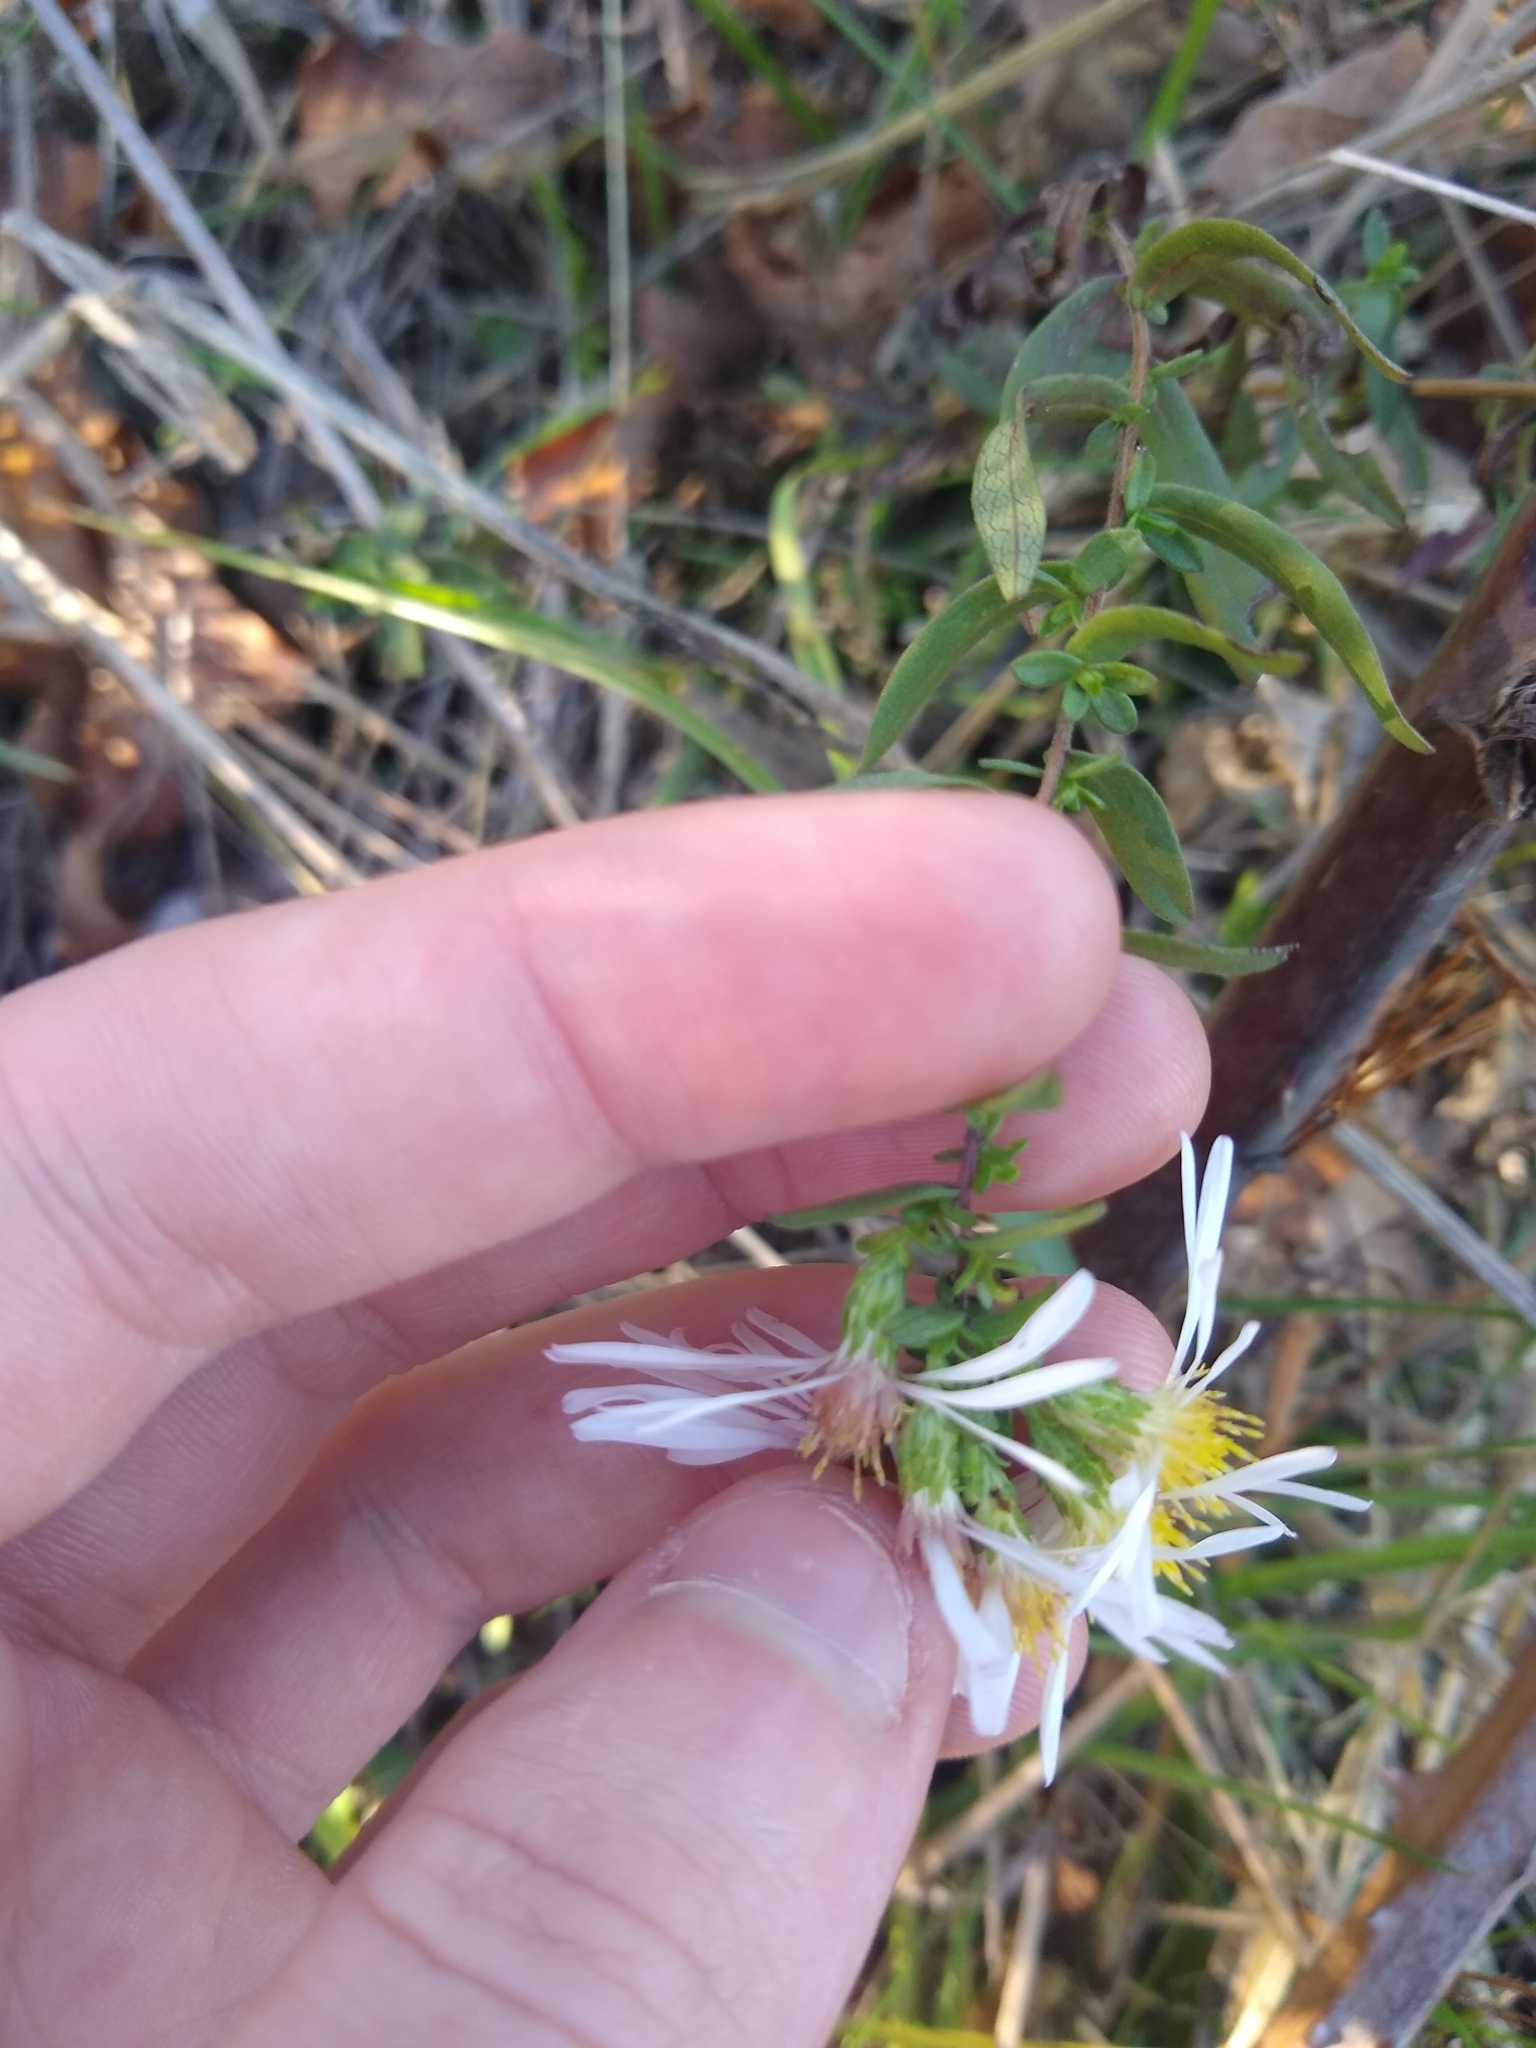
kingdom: Plantae
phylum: Tracheophyta
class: Magnoliopsida
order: Asterales
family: Asteraceae
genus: Symphyotrichum
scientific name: Symphyotrichum hallii
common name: Hall's aster
